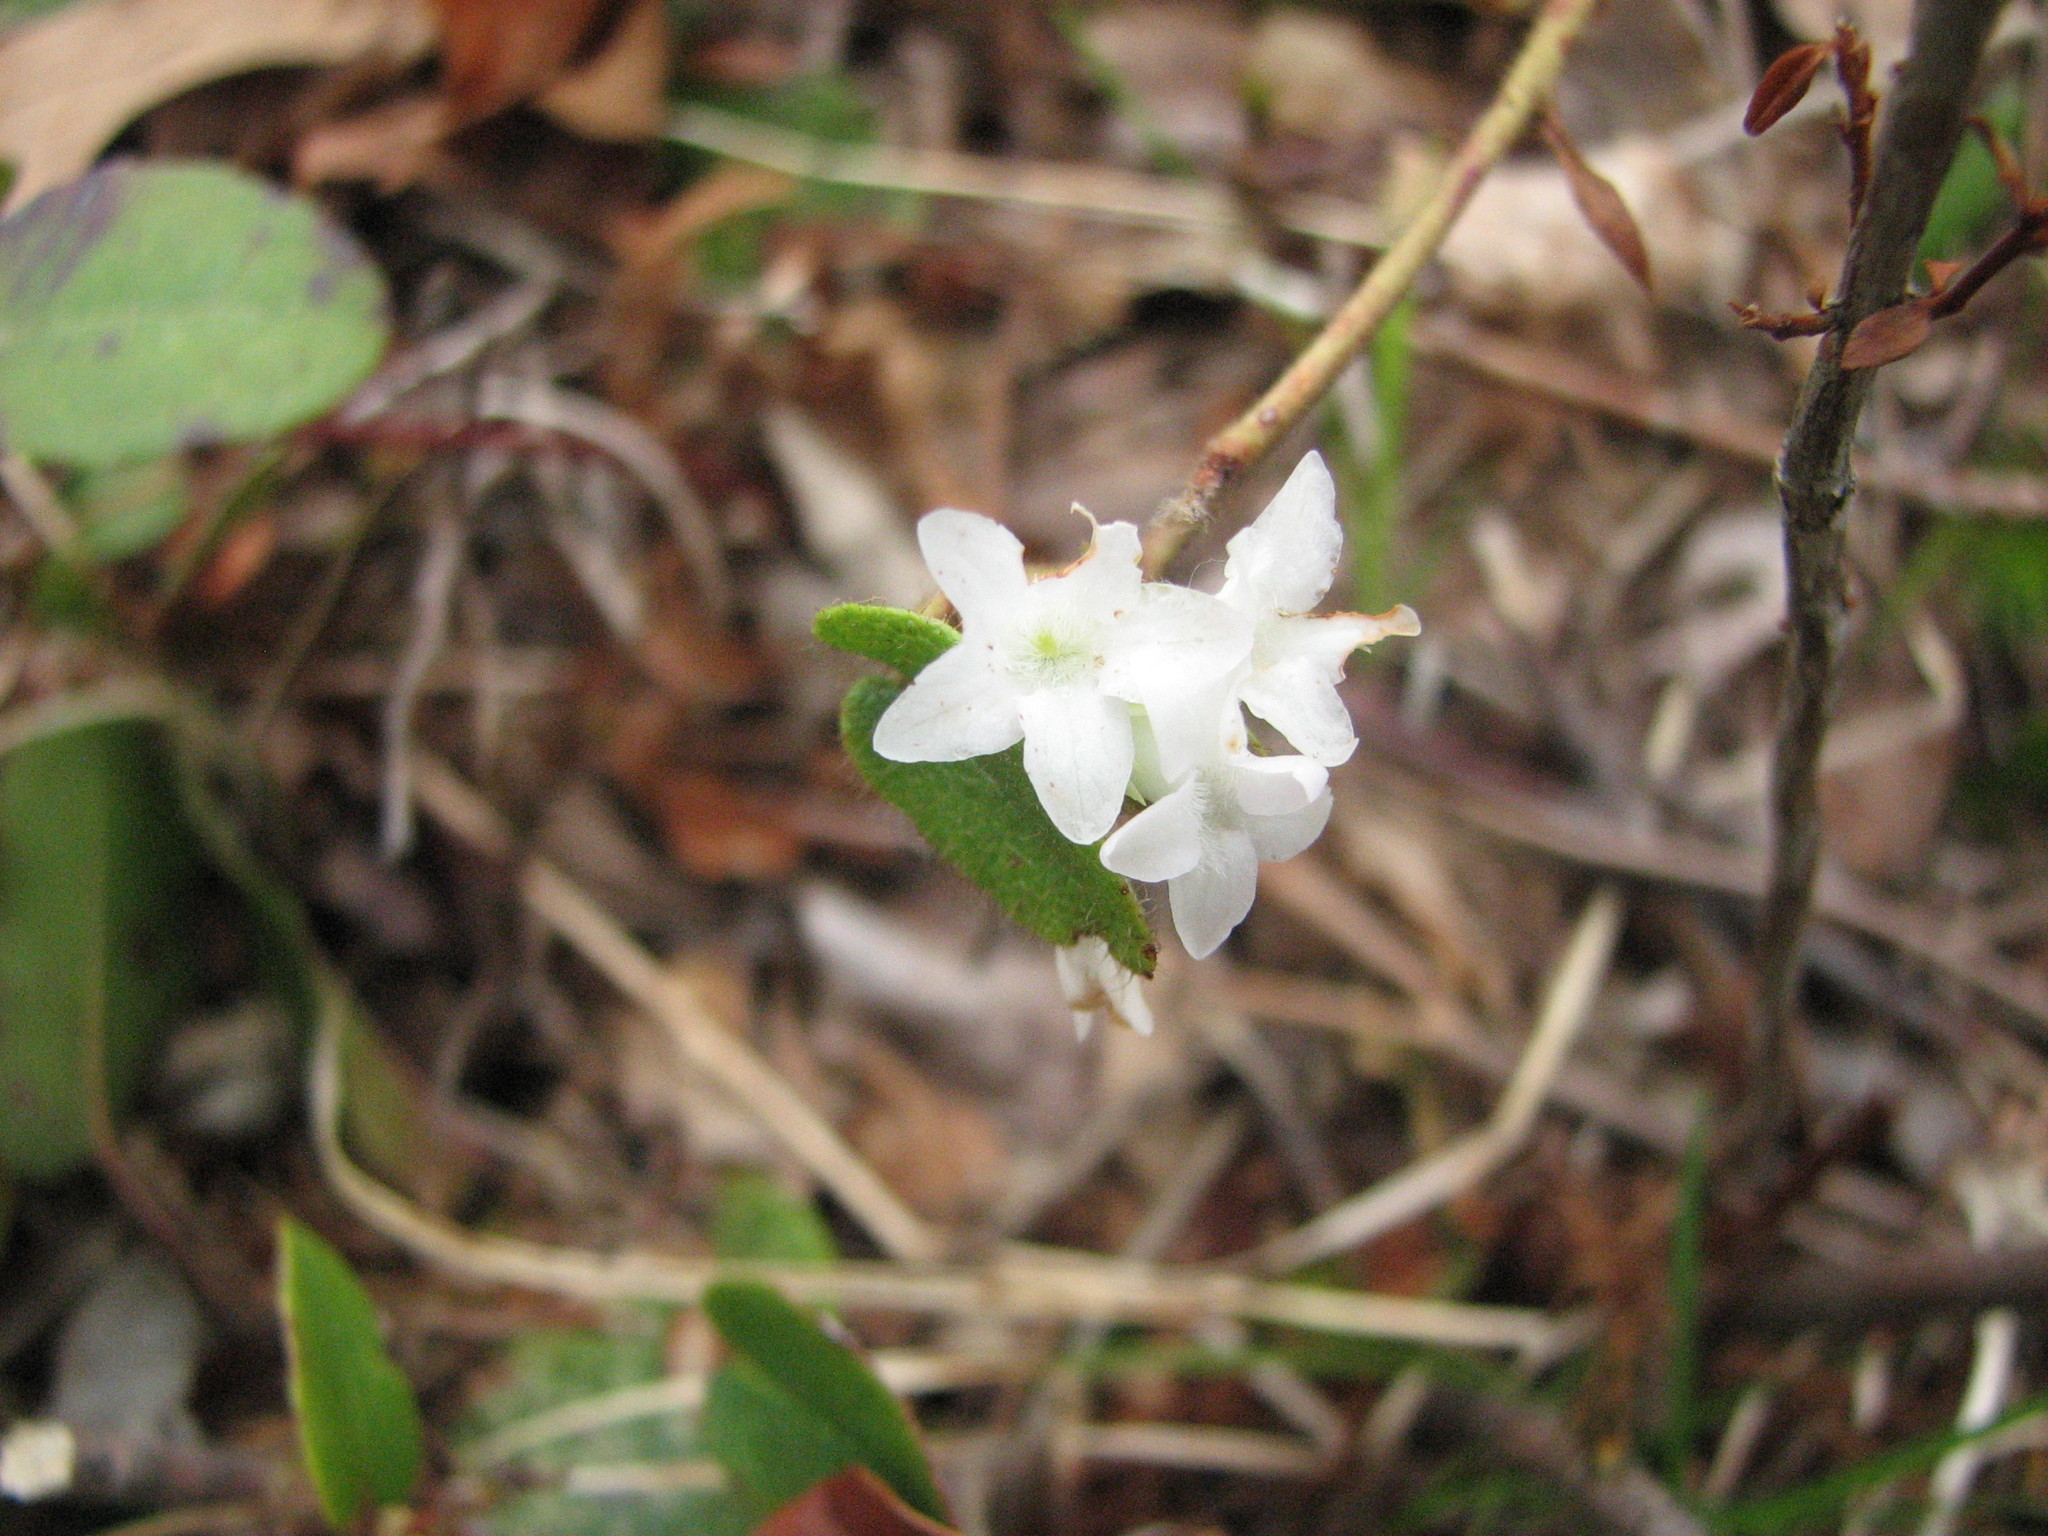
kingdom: Plantae
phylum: Tracheophyta
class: Magnoliopsida
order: Ericales
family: Ericaceae
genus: Epigaea
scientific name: Epigaea repens
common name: Gravelroot
